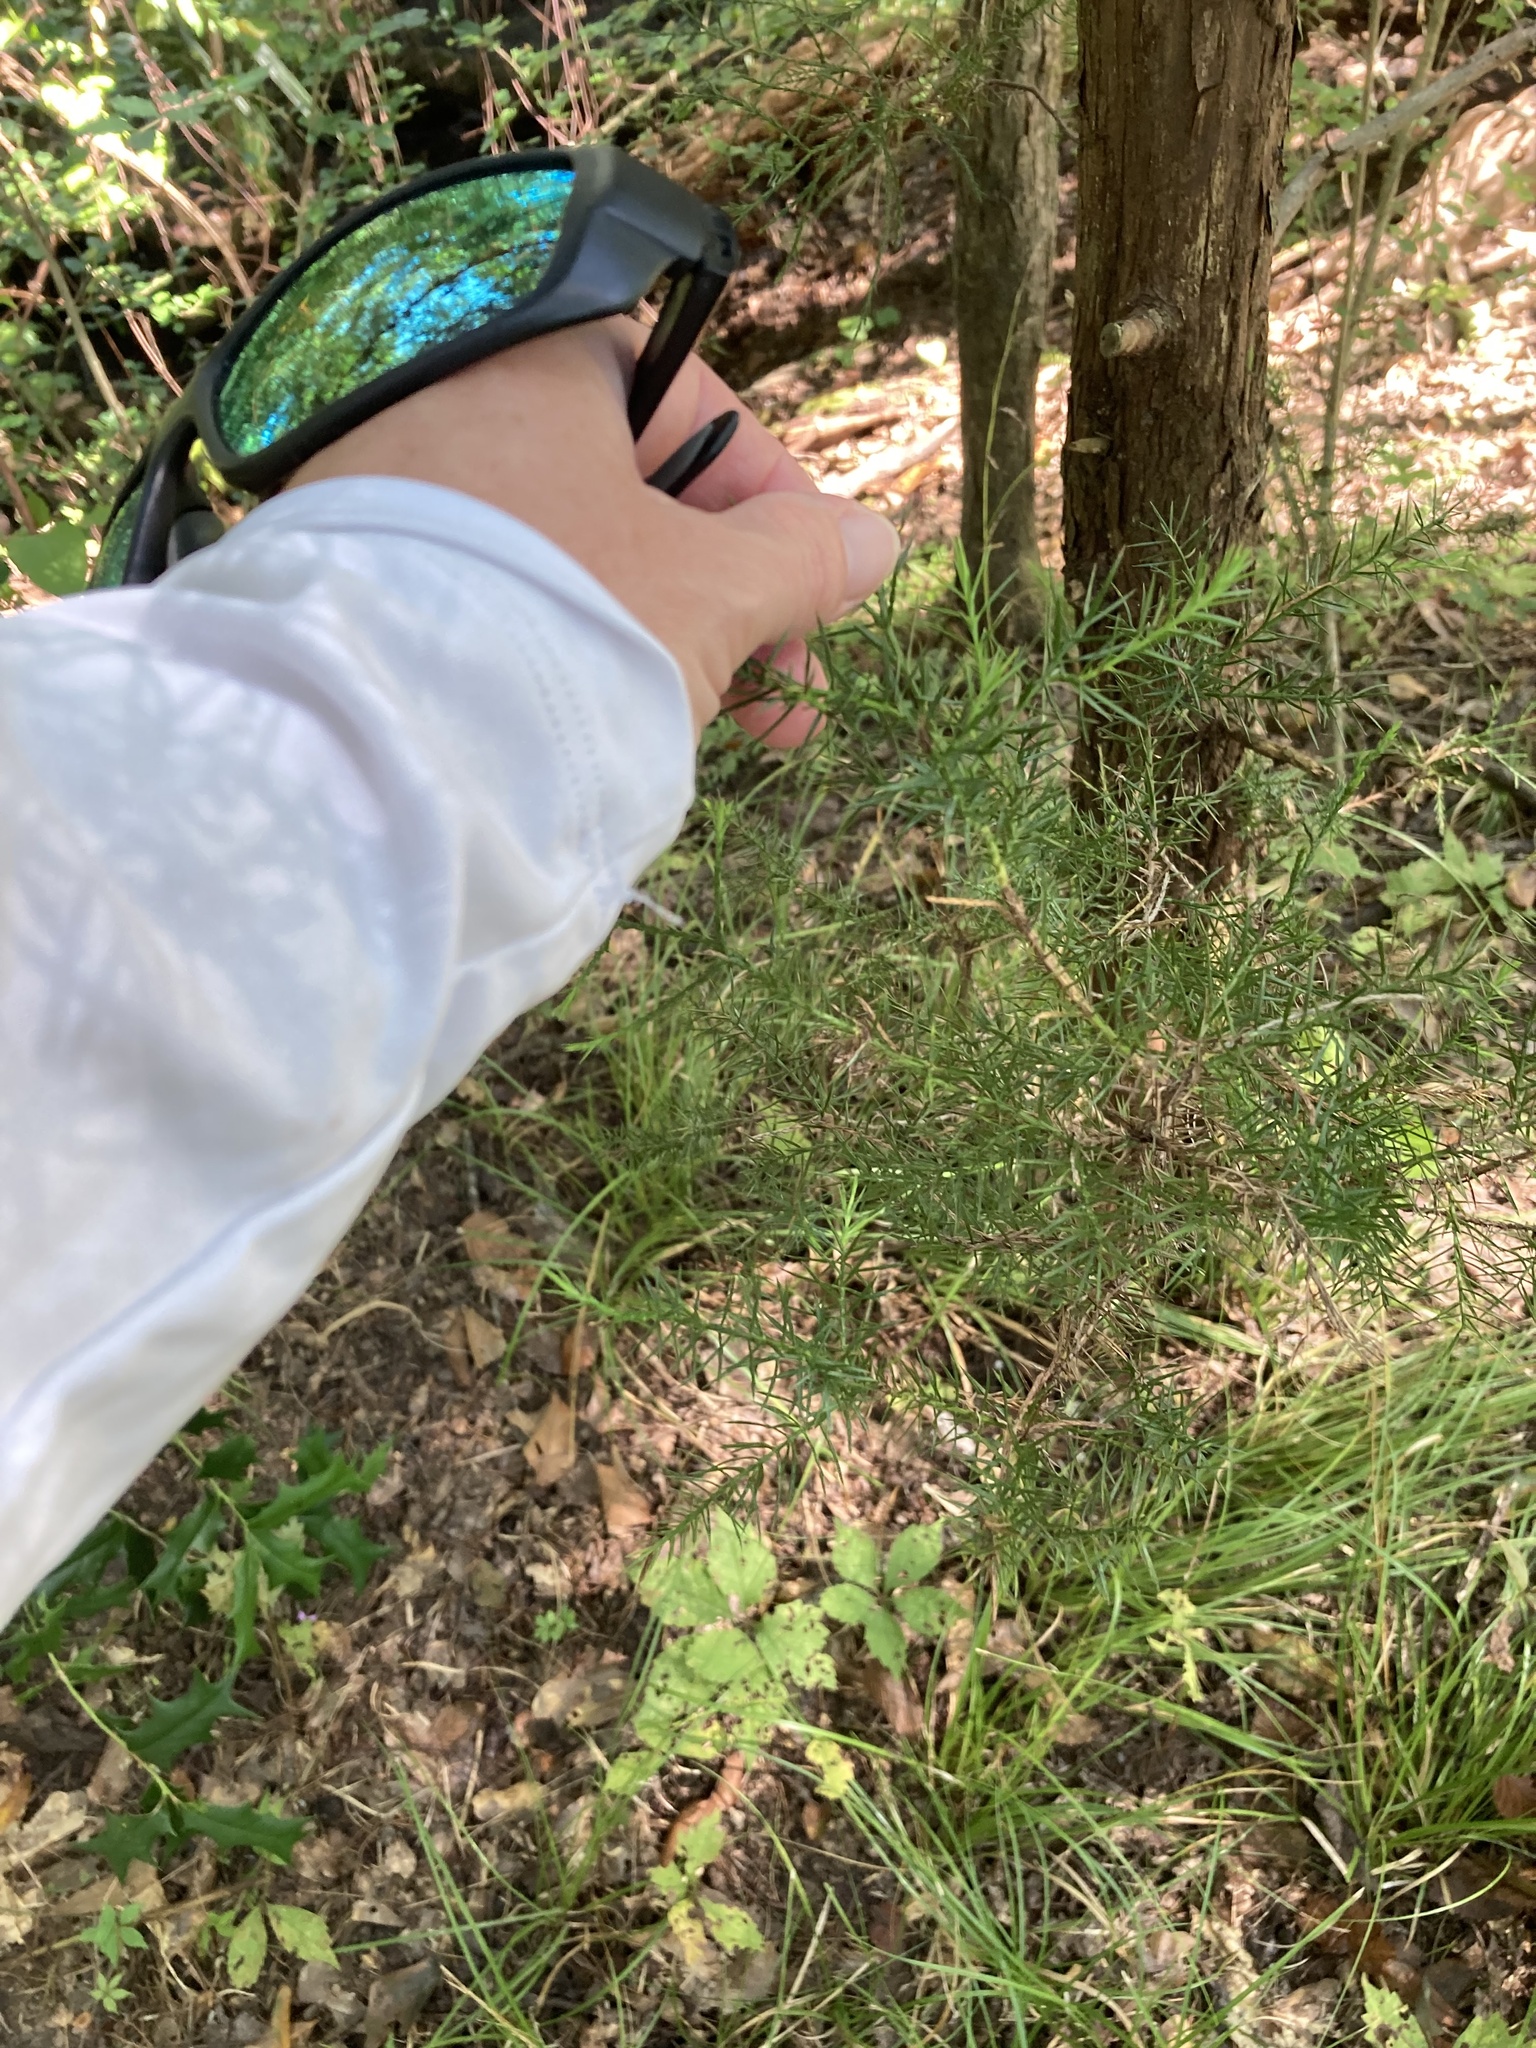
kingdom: Plantae
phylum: Tracheophyta
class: Pinopsida
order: Pinales
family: Cupressaceae
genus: Juniperus
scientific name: Juniperus virginiana
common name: Red juniper
